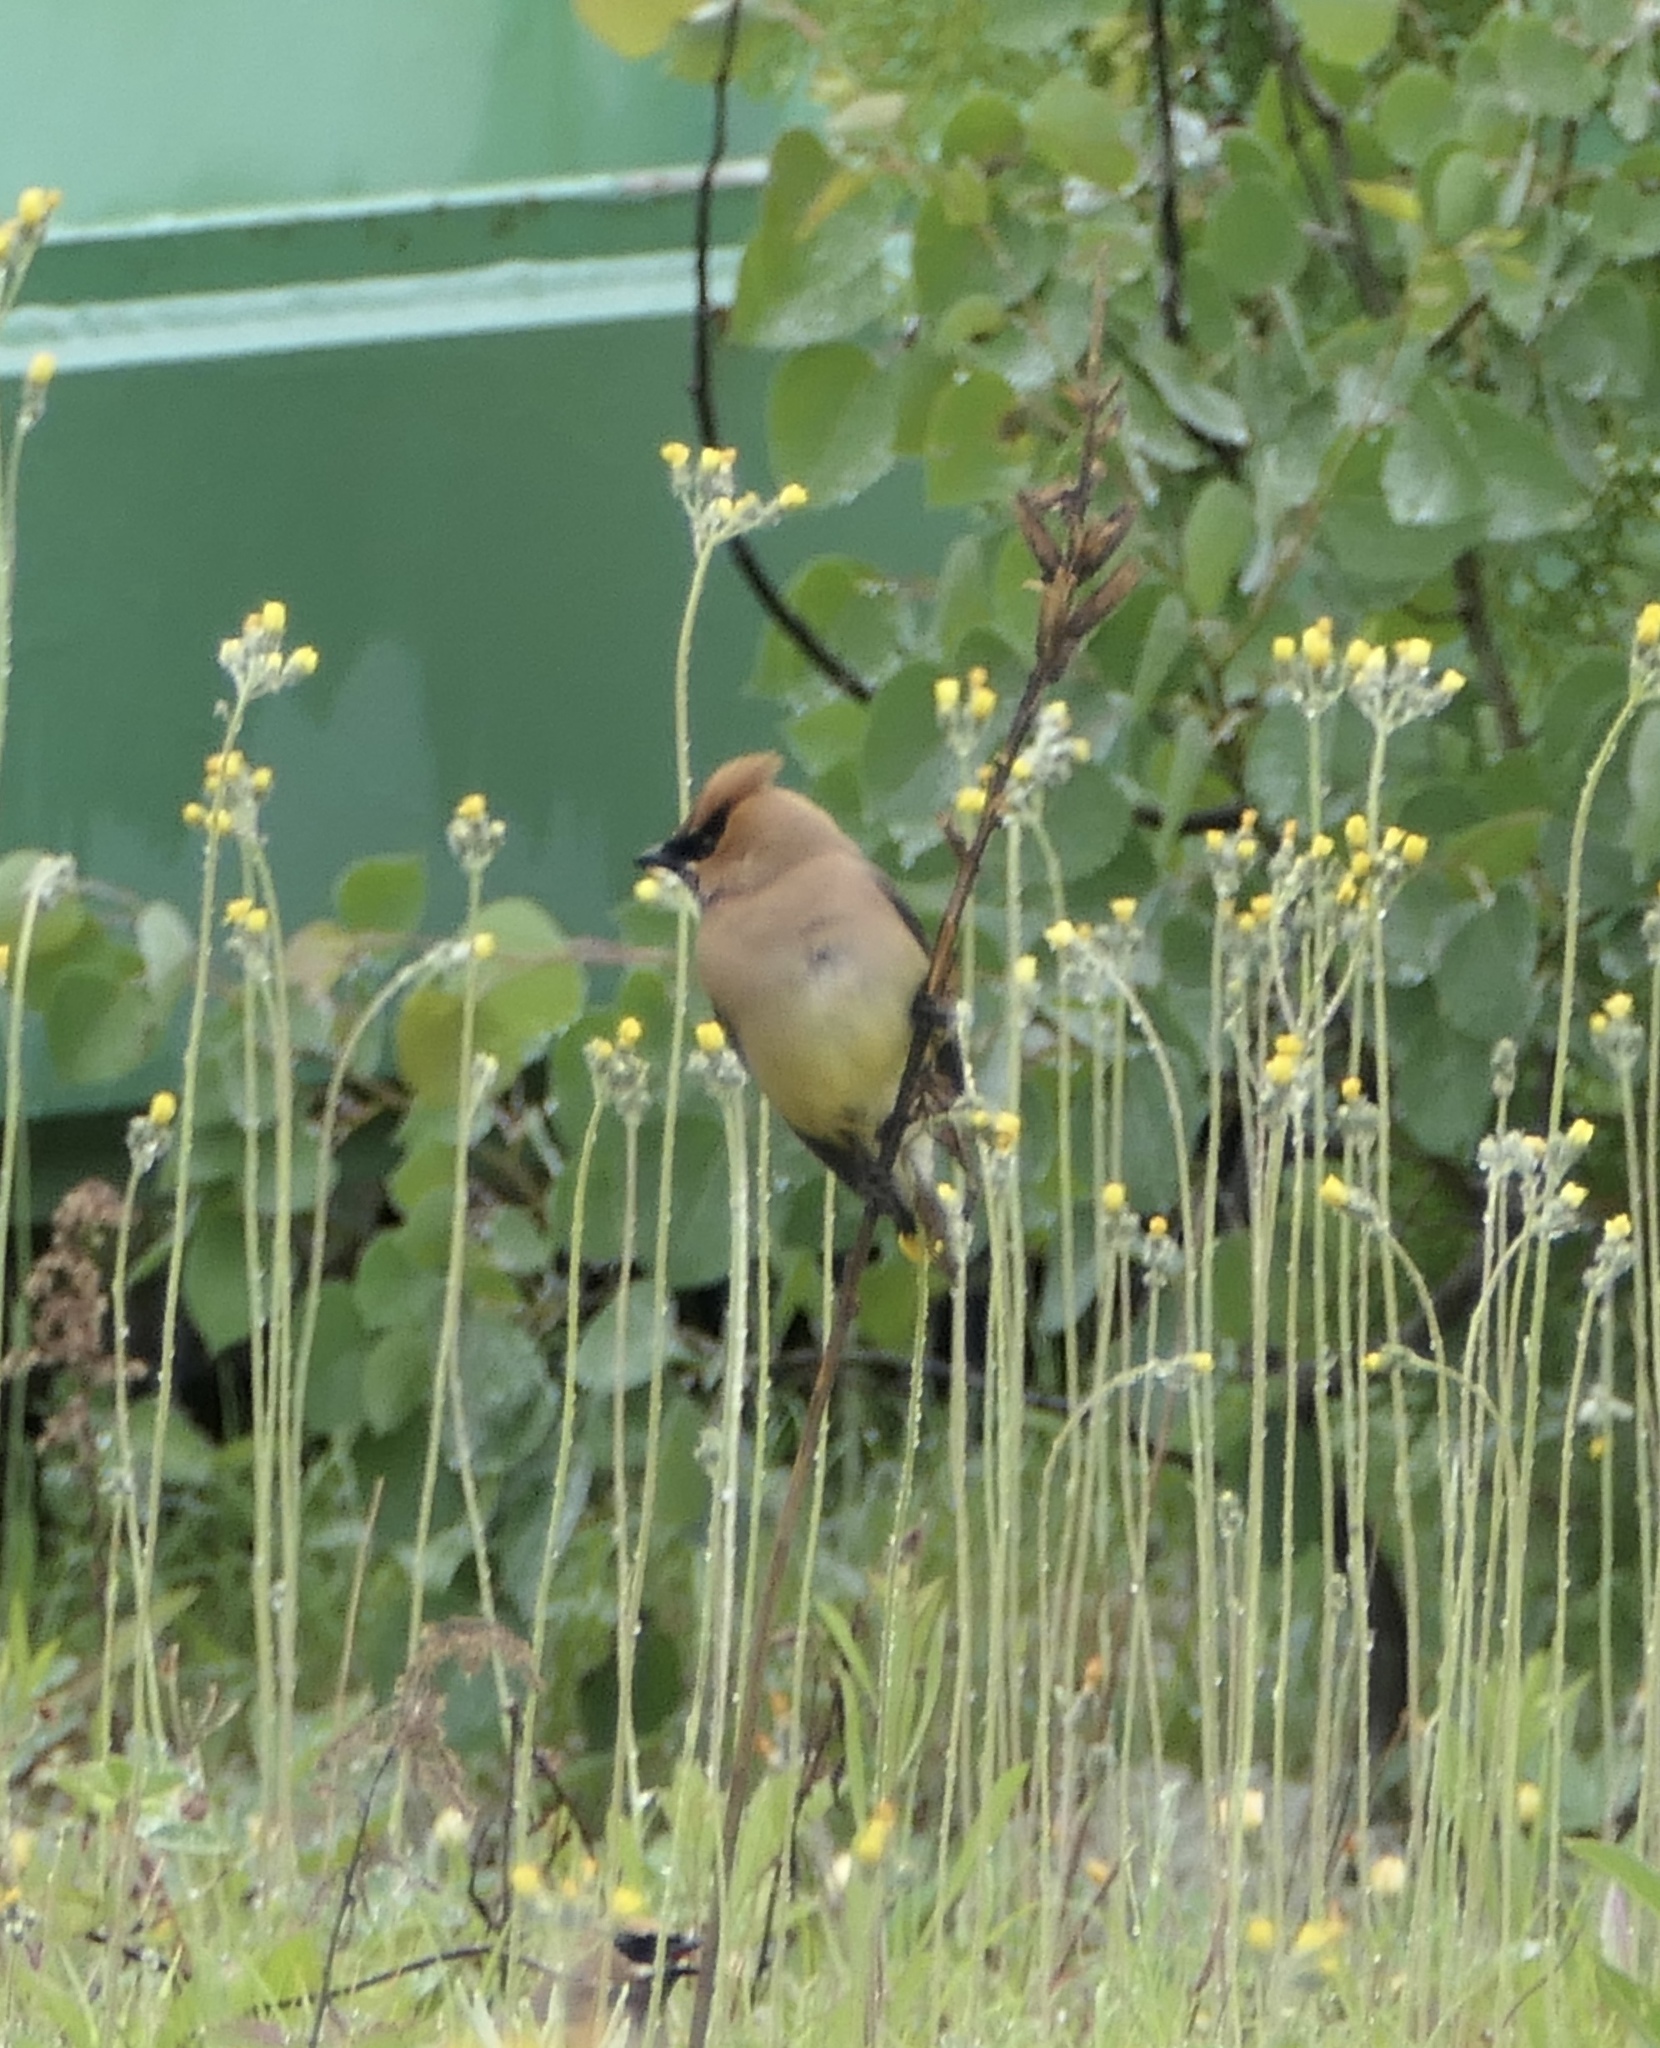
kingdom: Animalia
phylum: Chordata
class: Aves
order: Passeriformes
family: Bombycillidae
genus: Bombycilla
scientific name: Bombycilla cedrorum
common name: Cedar waxwing
